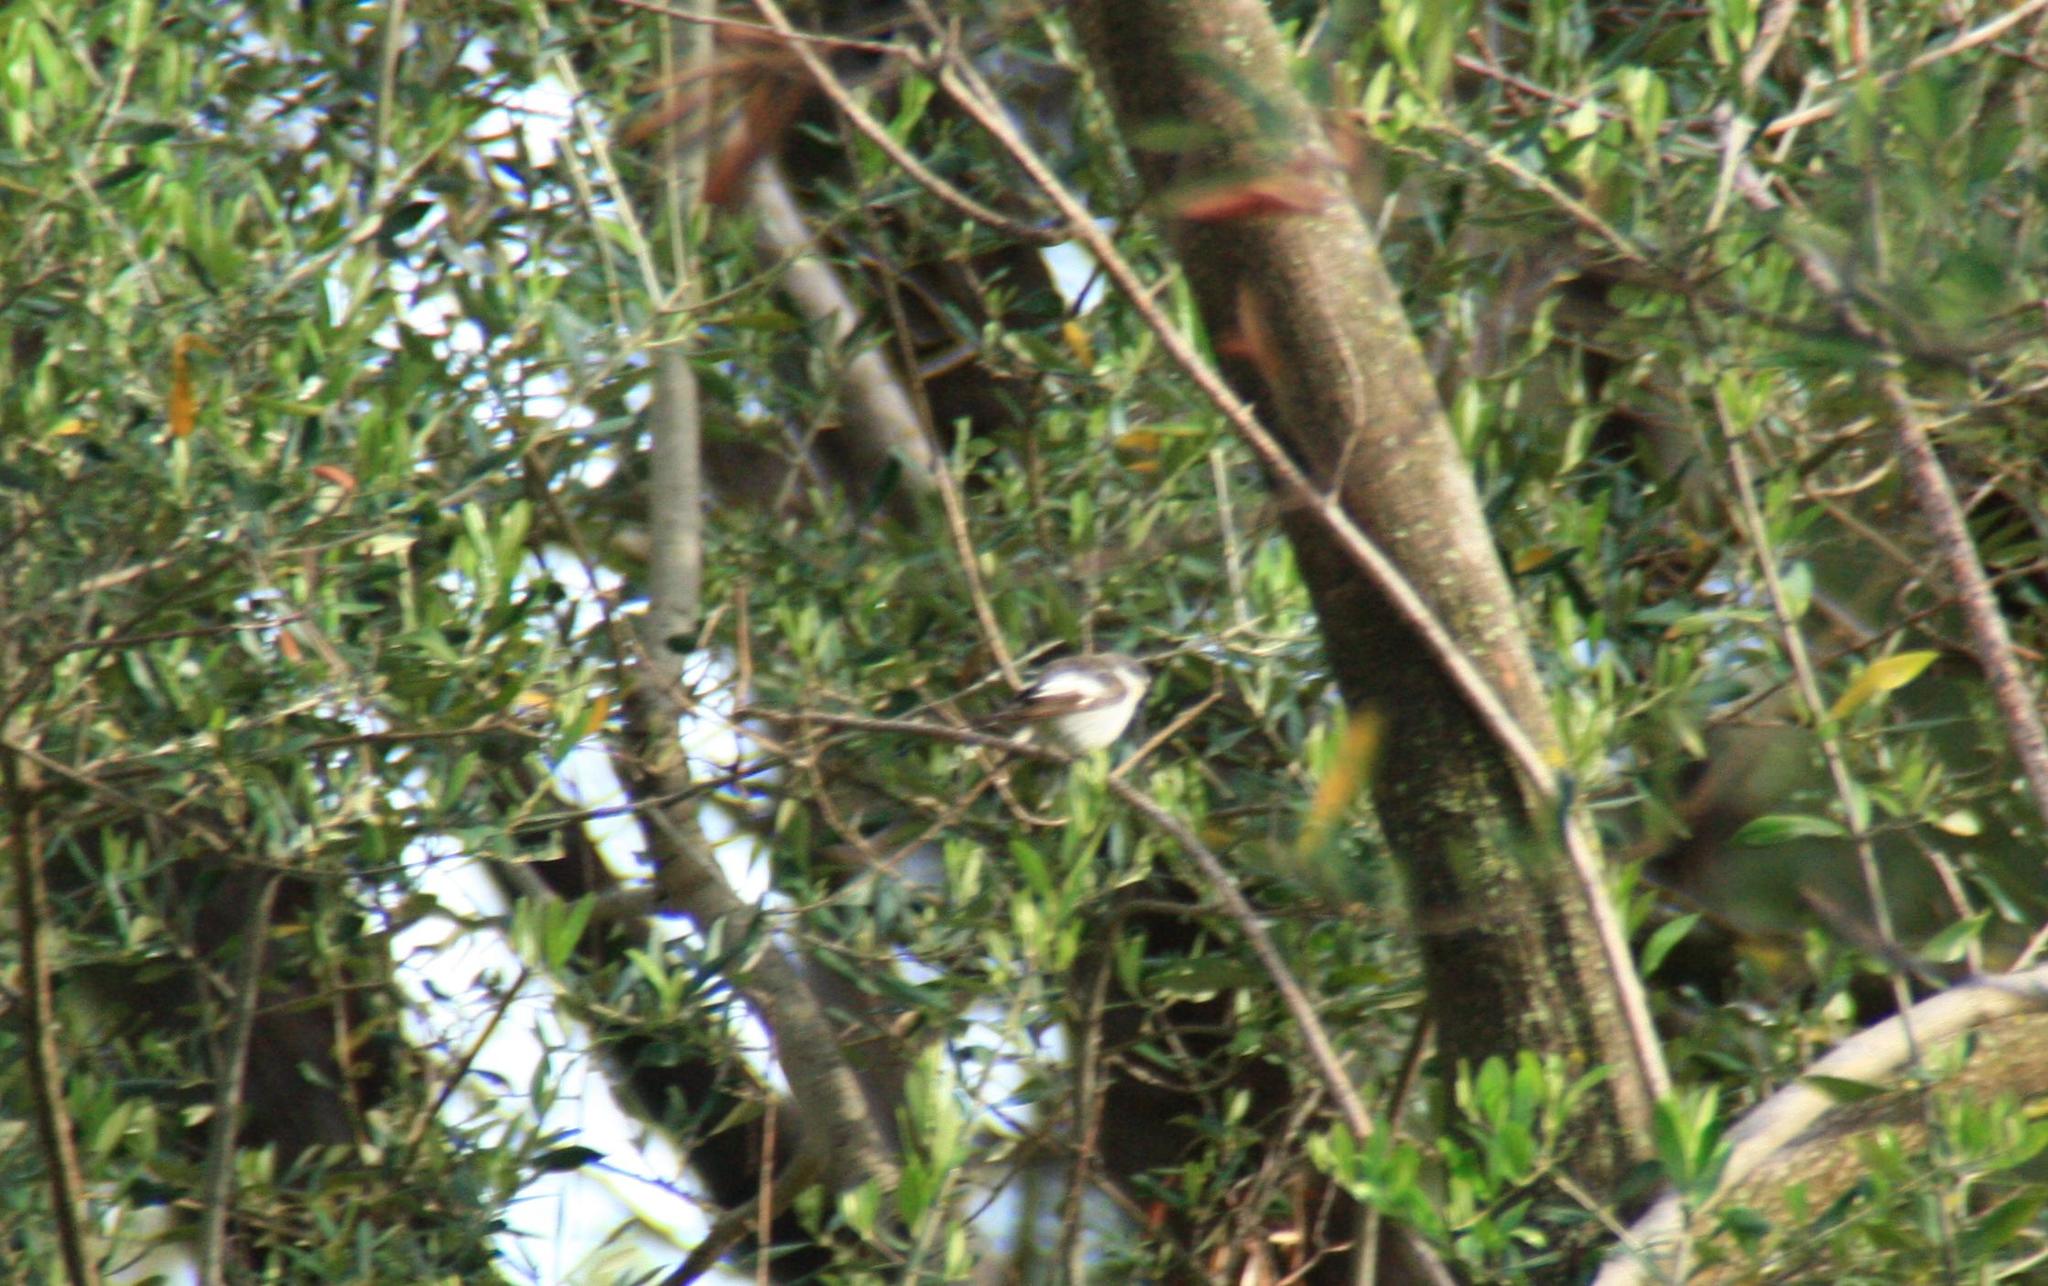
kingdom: Animalia
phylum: Chordata
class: Aves
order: Passeriformes
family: Muscicapidae
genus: Ficedula
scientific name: Ficedula hypoleuca
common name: European pied flycatcher
